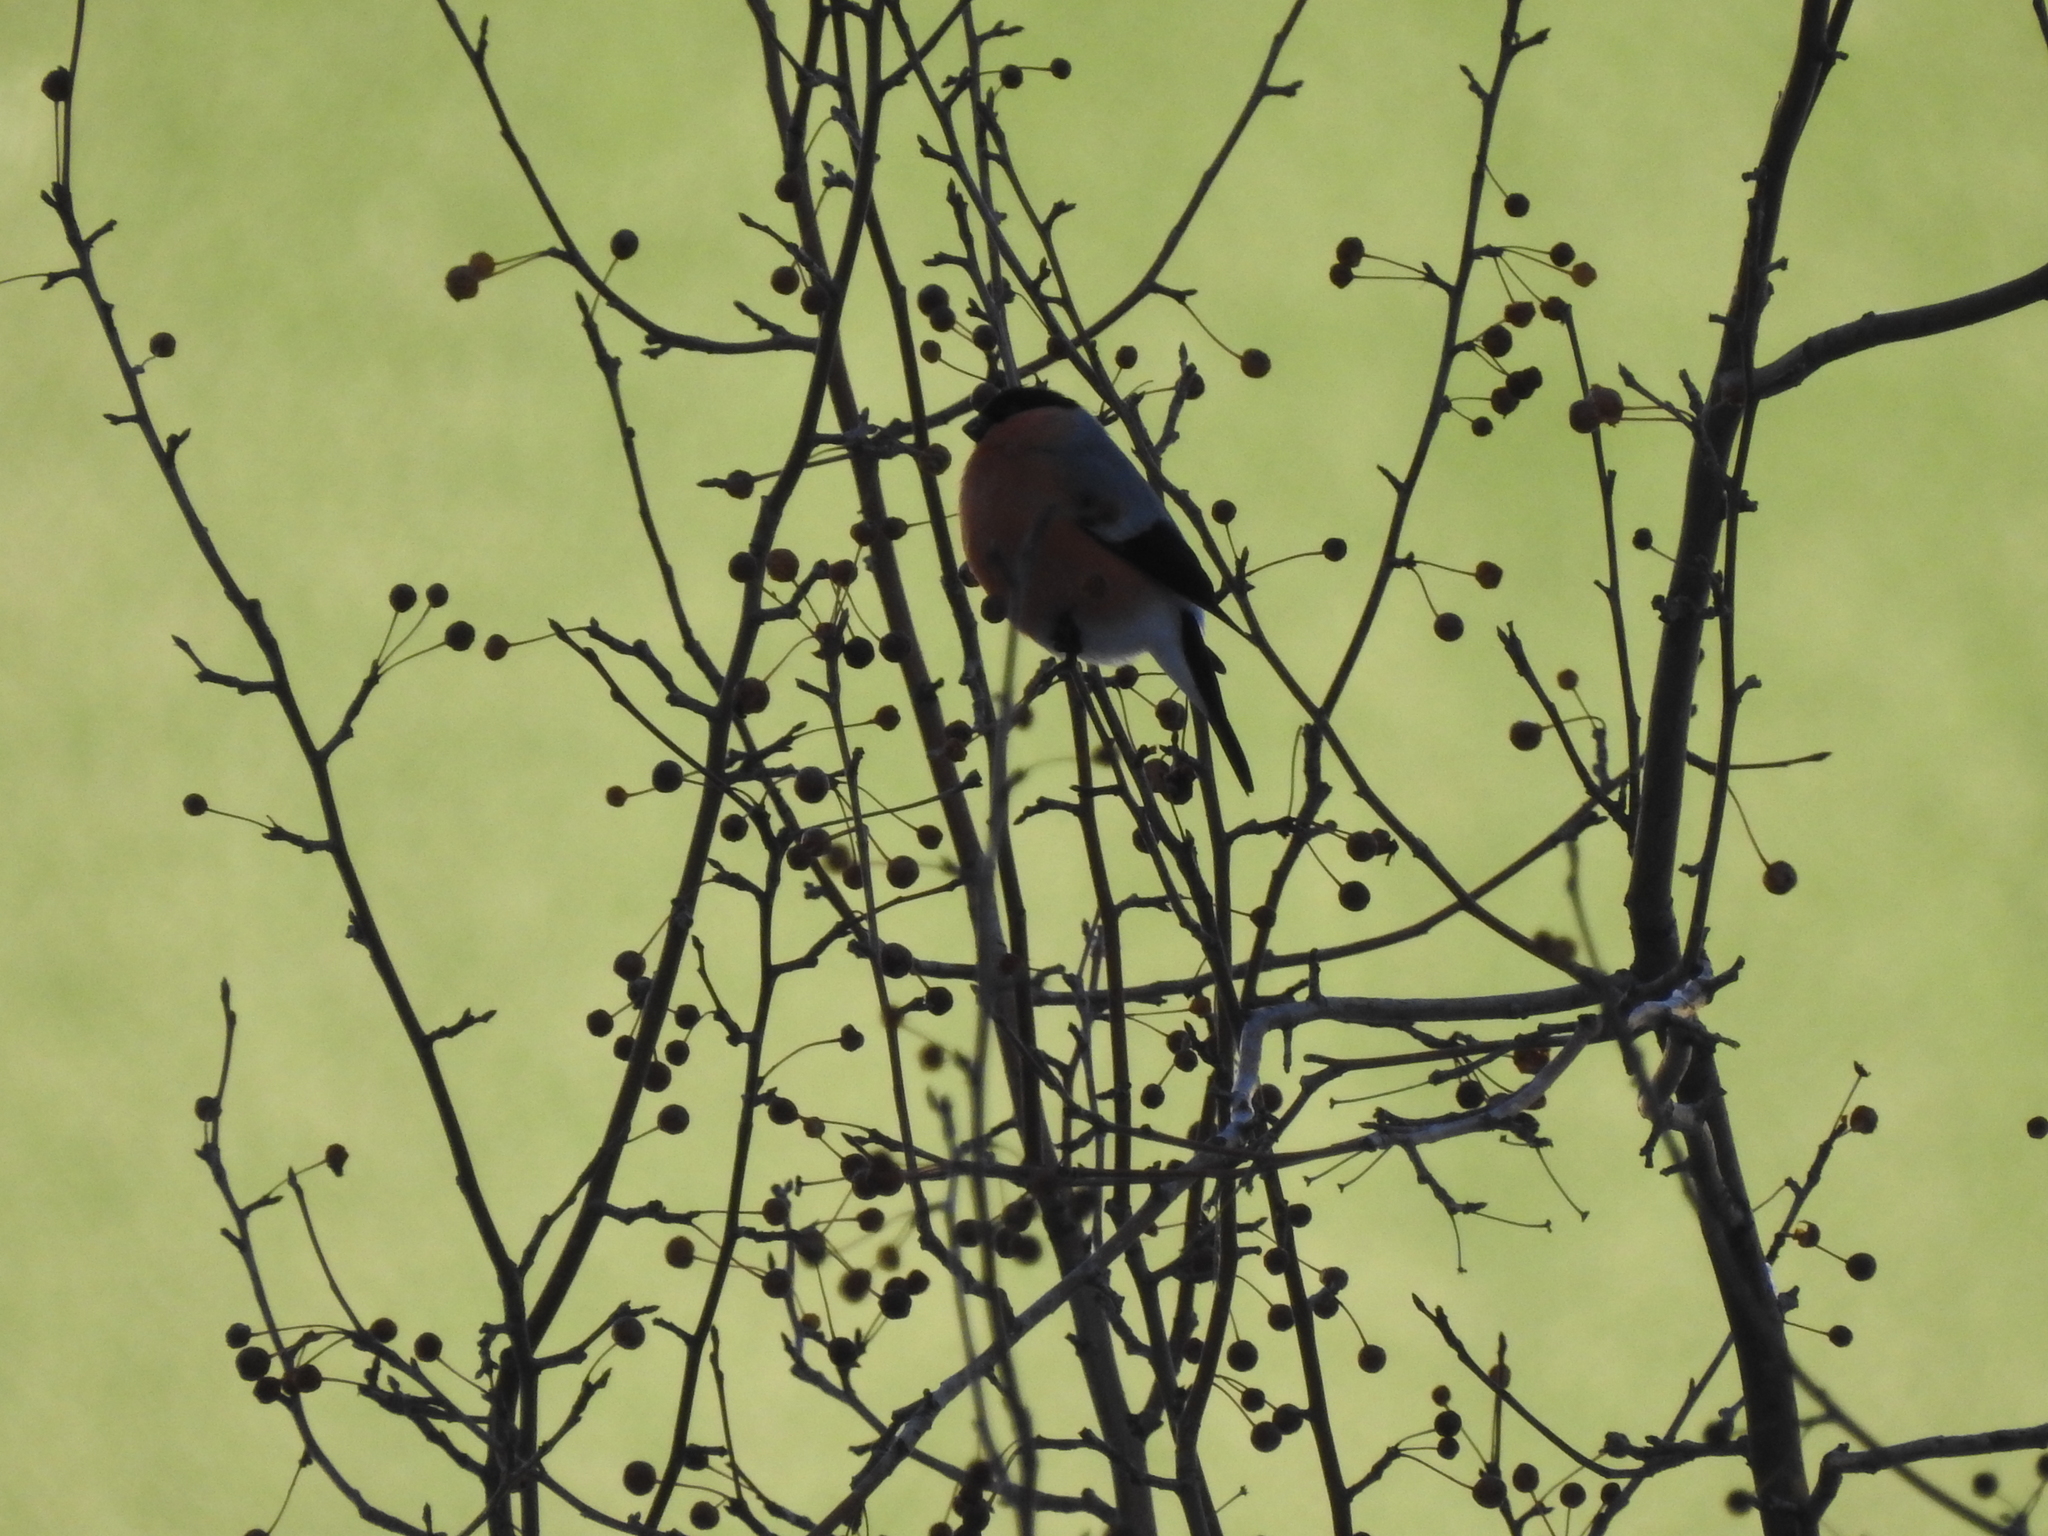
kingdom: Animalia
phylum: Chordata
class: Aves
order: Passeriformes
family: Fringillidae
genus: Pyrrhula
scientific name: Pyrrhula pyrrhula
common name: Eurasian bullfinch
